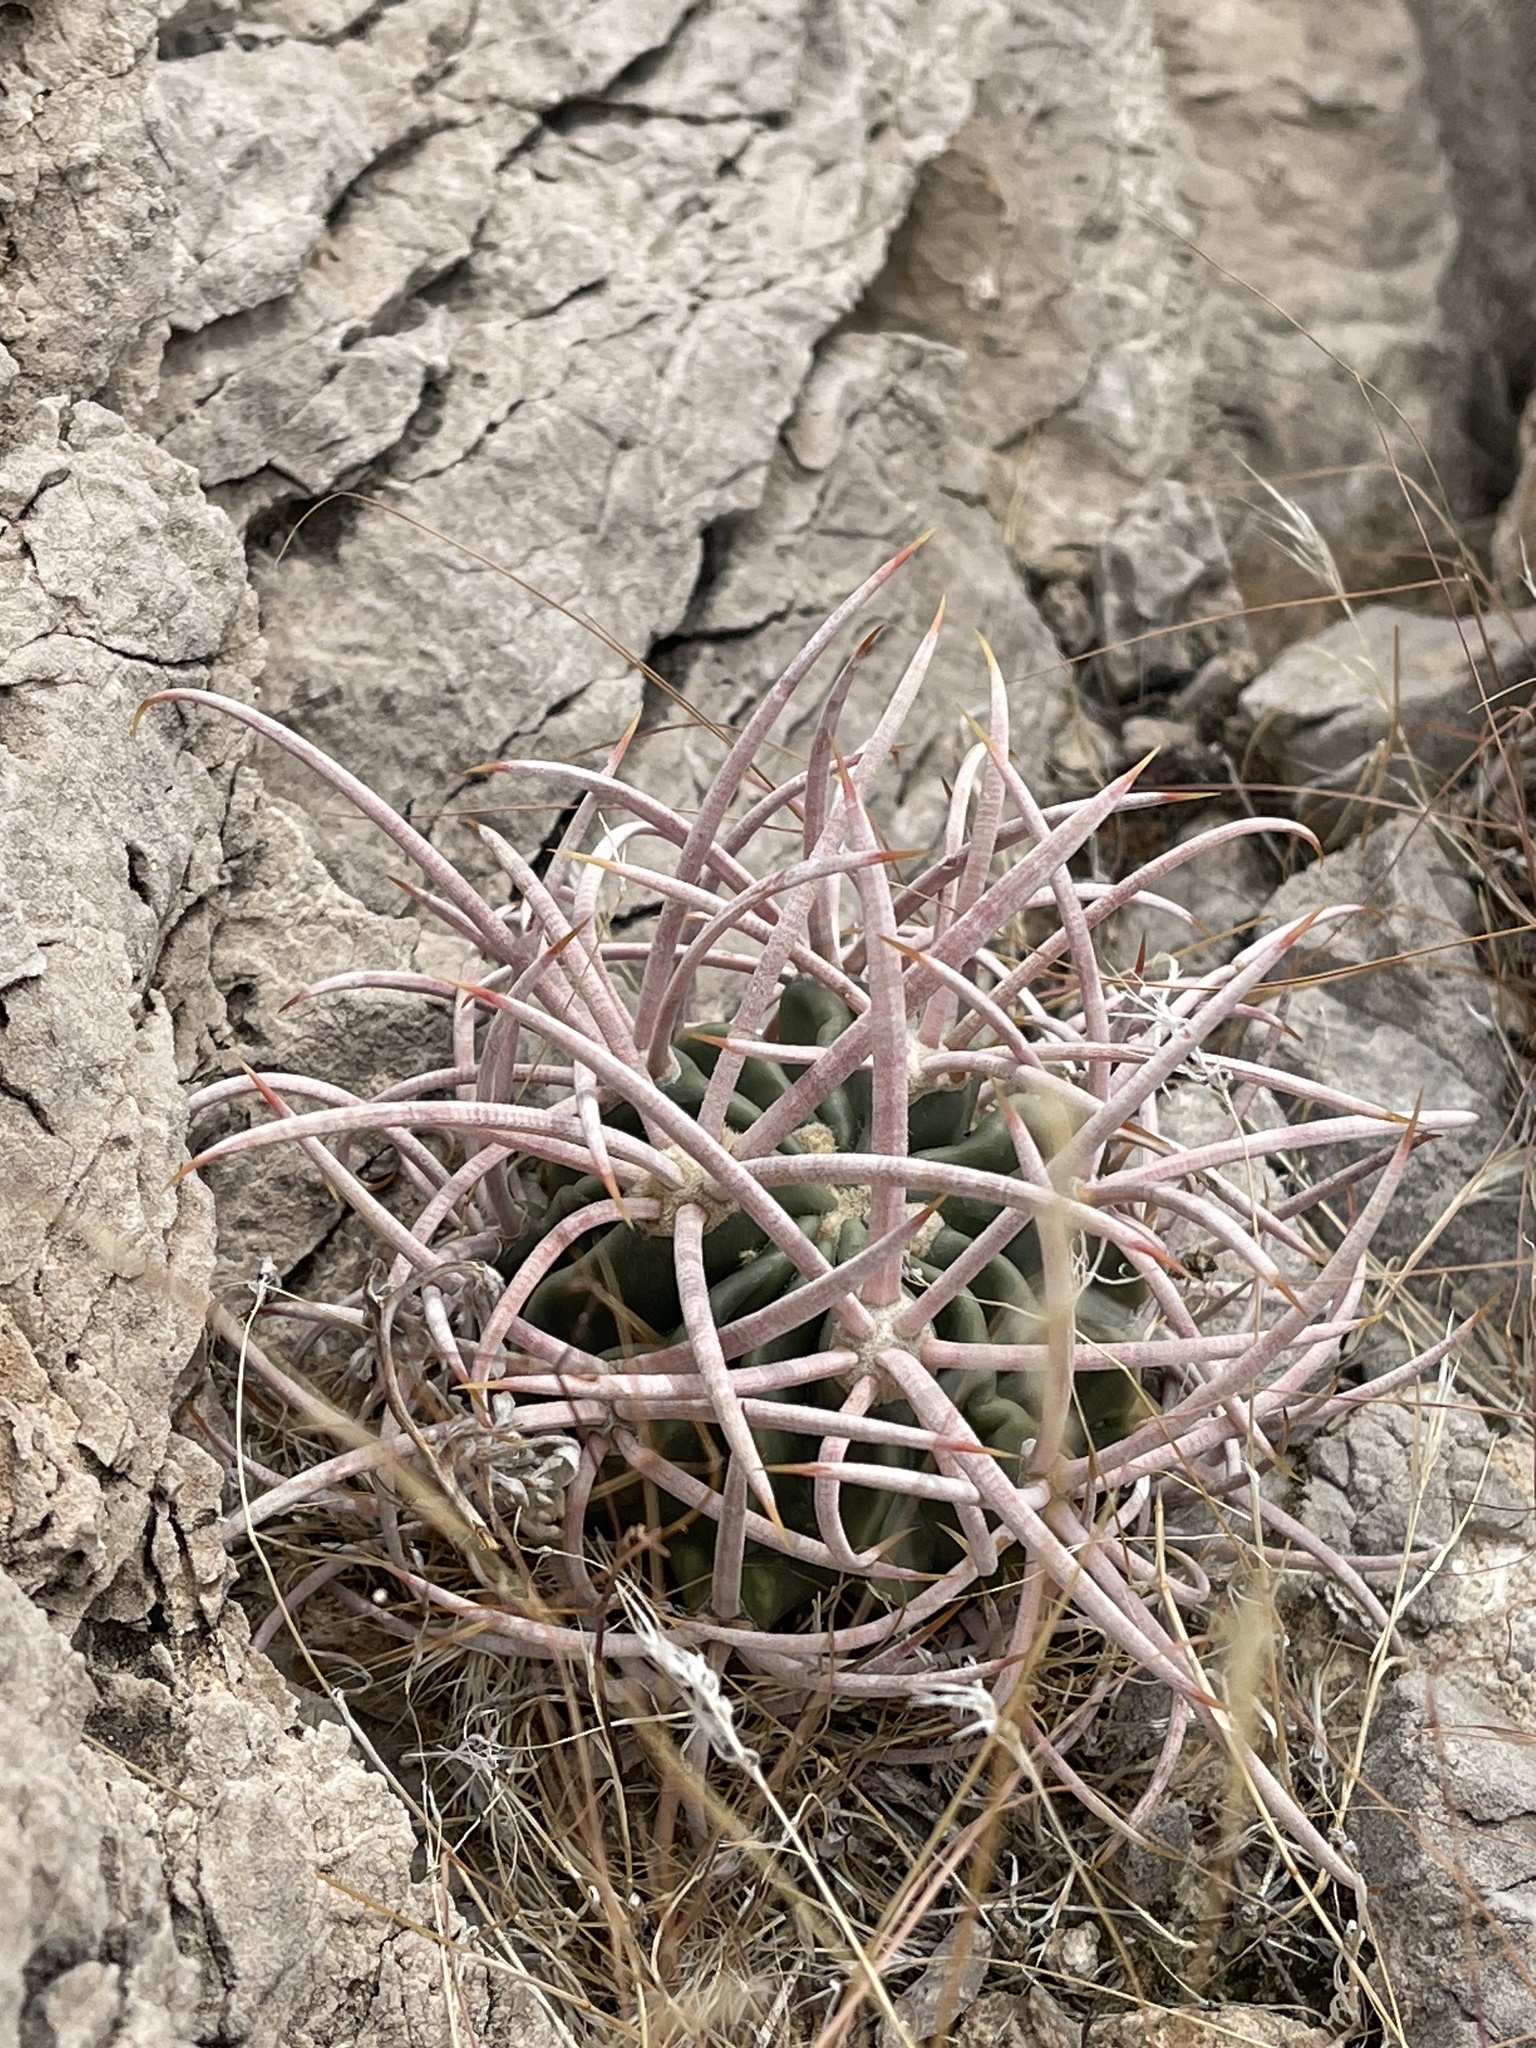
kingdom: Plantae
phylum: Tracheophyta
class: Magnoliopsida
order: Caryophyllales
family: Cactaceae
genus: Echinocactus
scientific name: Echinocactus polycephalus
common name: Cottontop cactus
